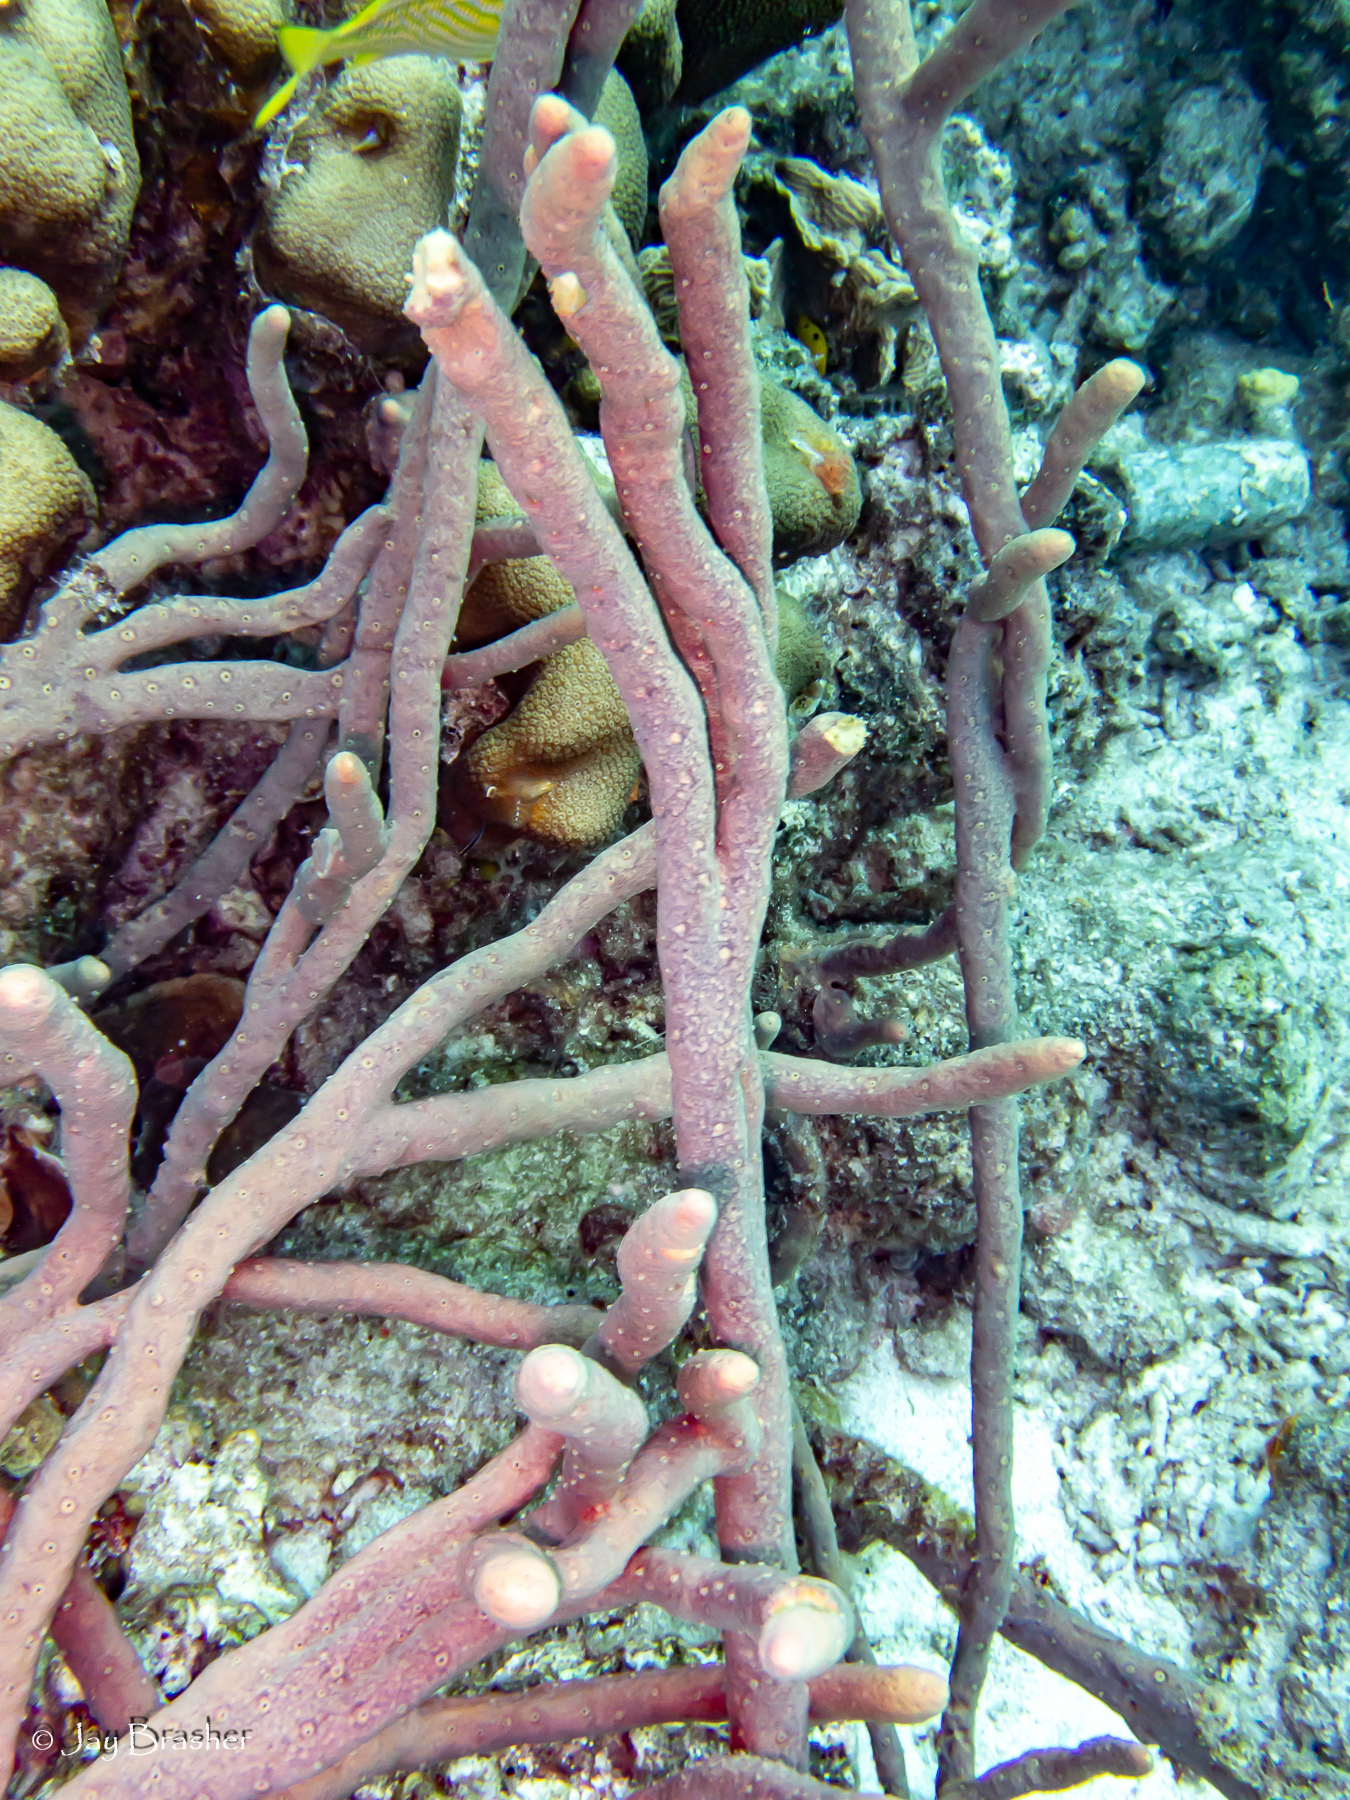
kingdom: Animalia
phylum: Porifera
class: Demospongiae
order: Verongiida
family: Aplysinidae
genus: Aplysina
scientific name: Aplysina cauliformis
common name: Branching candle sponge
